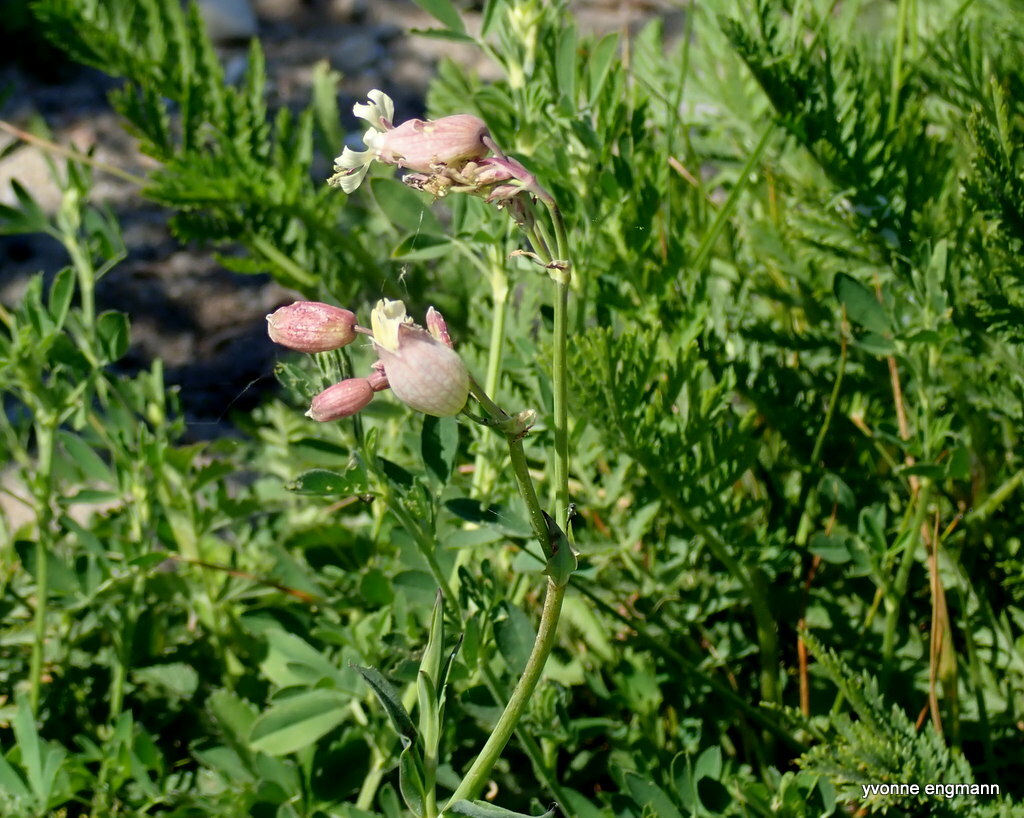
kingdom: Plantae
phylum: Tracheophyta
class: Magnoliopsida
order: Caryophyllales
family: Caryophyllaceae
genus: Silene
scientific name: Silene vulgaris
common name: Bladder campion
